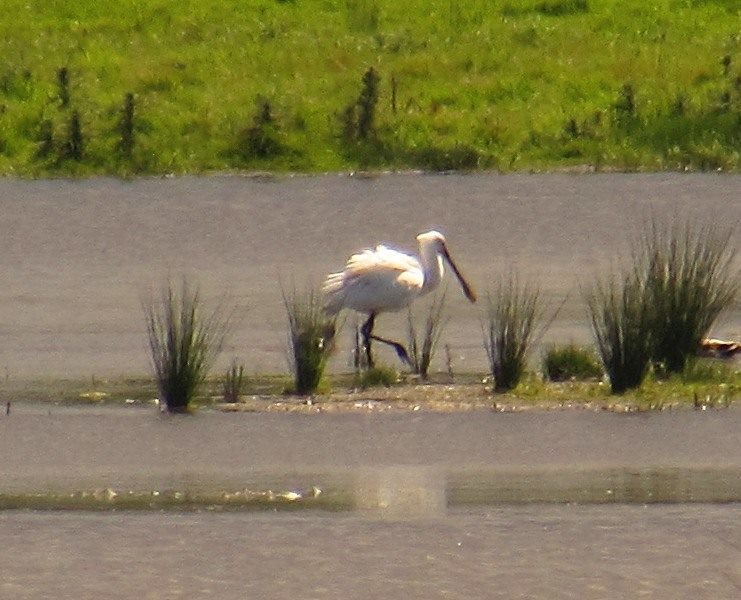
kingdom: Animalia
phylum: Chordata
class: Aves
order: Pelecaniformes
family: Threskiornithidae
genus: Platalea
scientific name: Platalea leucorodia
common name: Eurasian spoonbill
